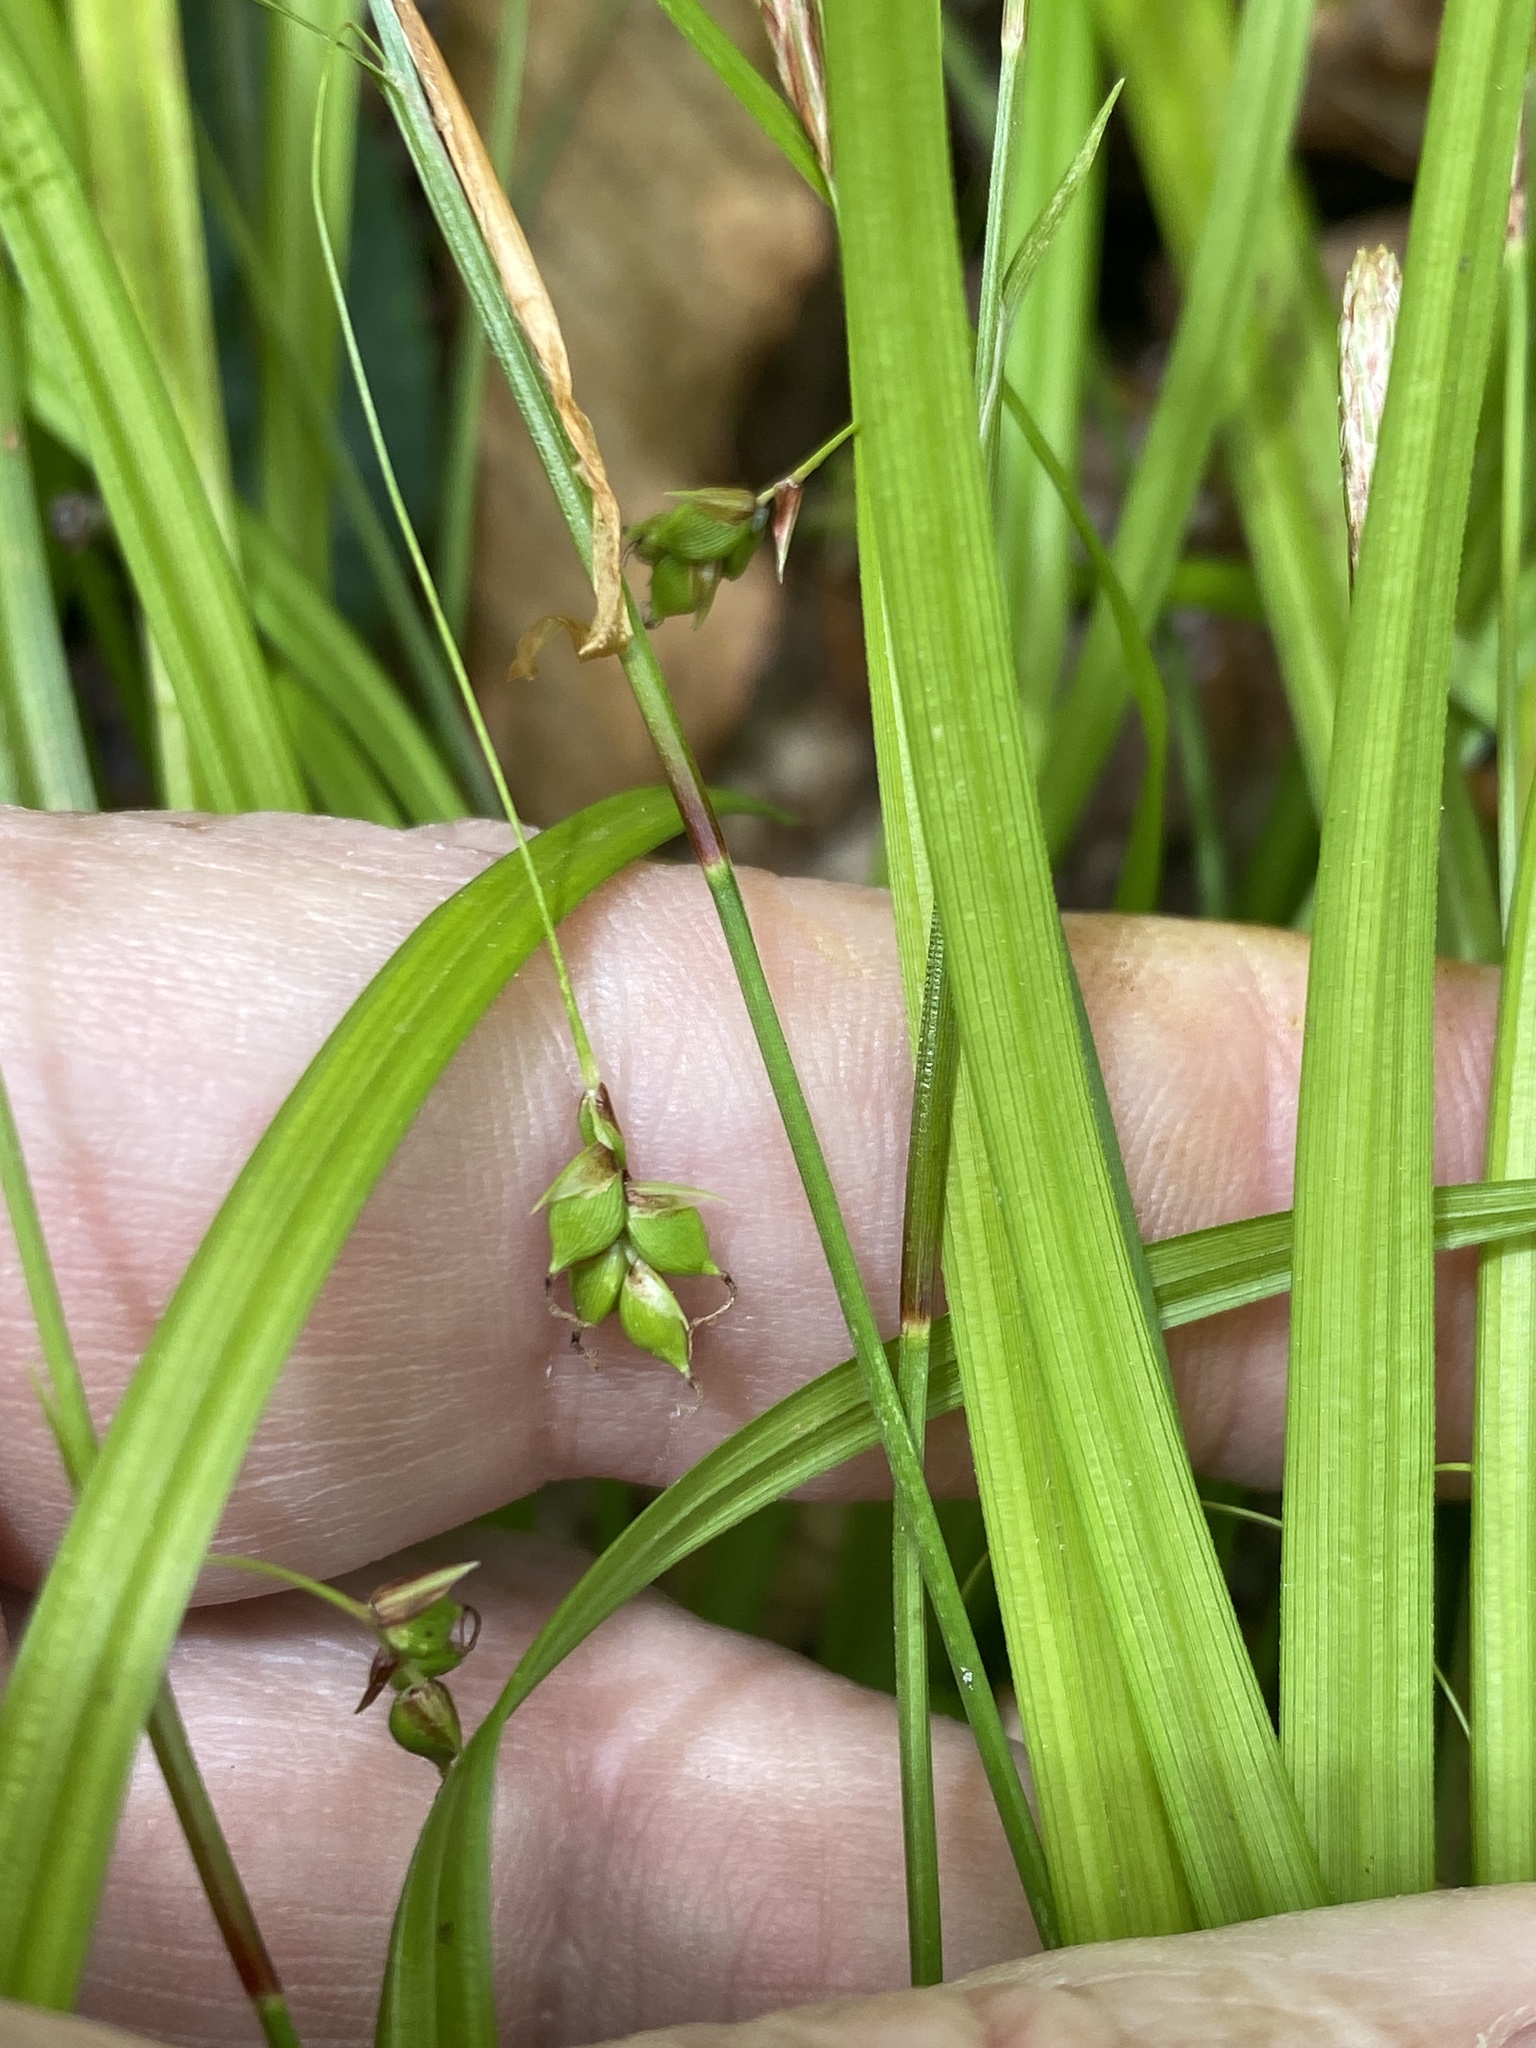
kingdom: Plantae
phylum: Tracheophyta
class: Liliopsida
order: Poales
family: Cyperaceae
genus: Carex
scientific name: Carex austrocaroliniana
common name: Tarheel sedge
